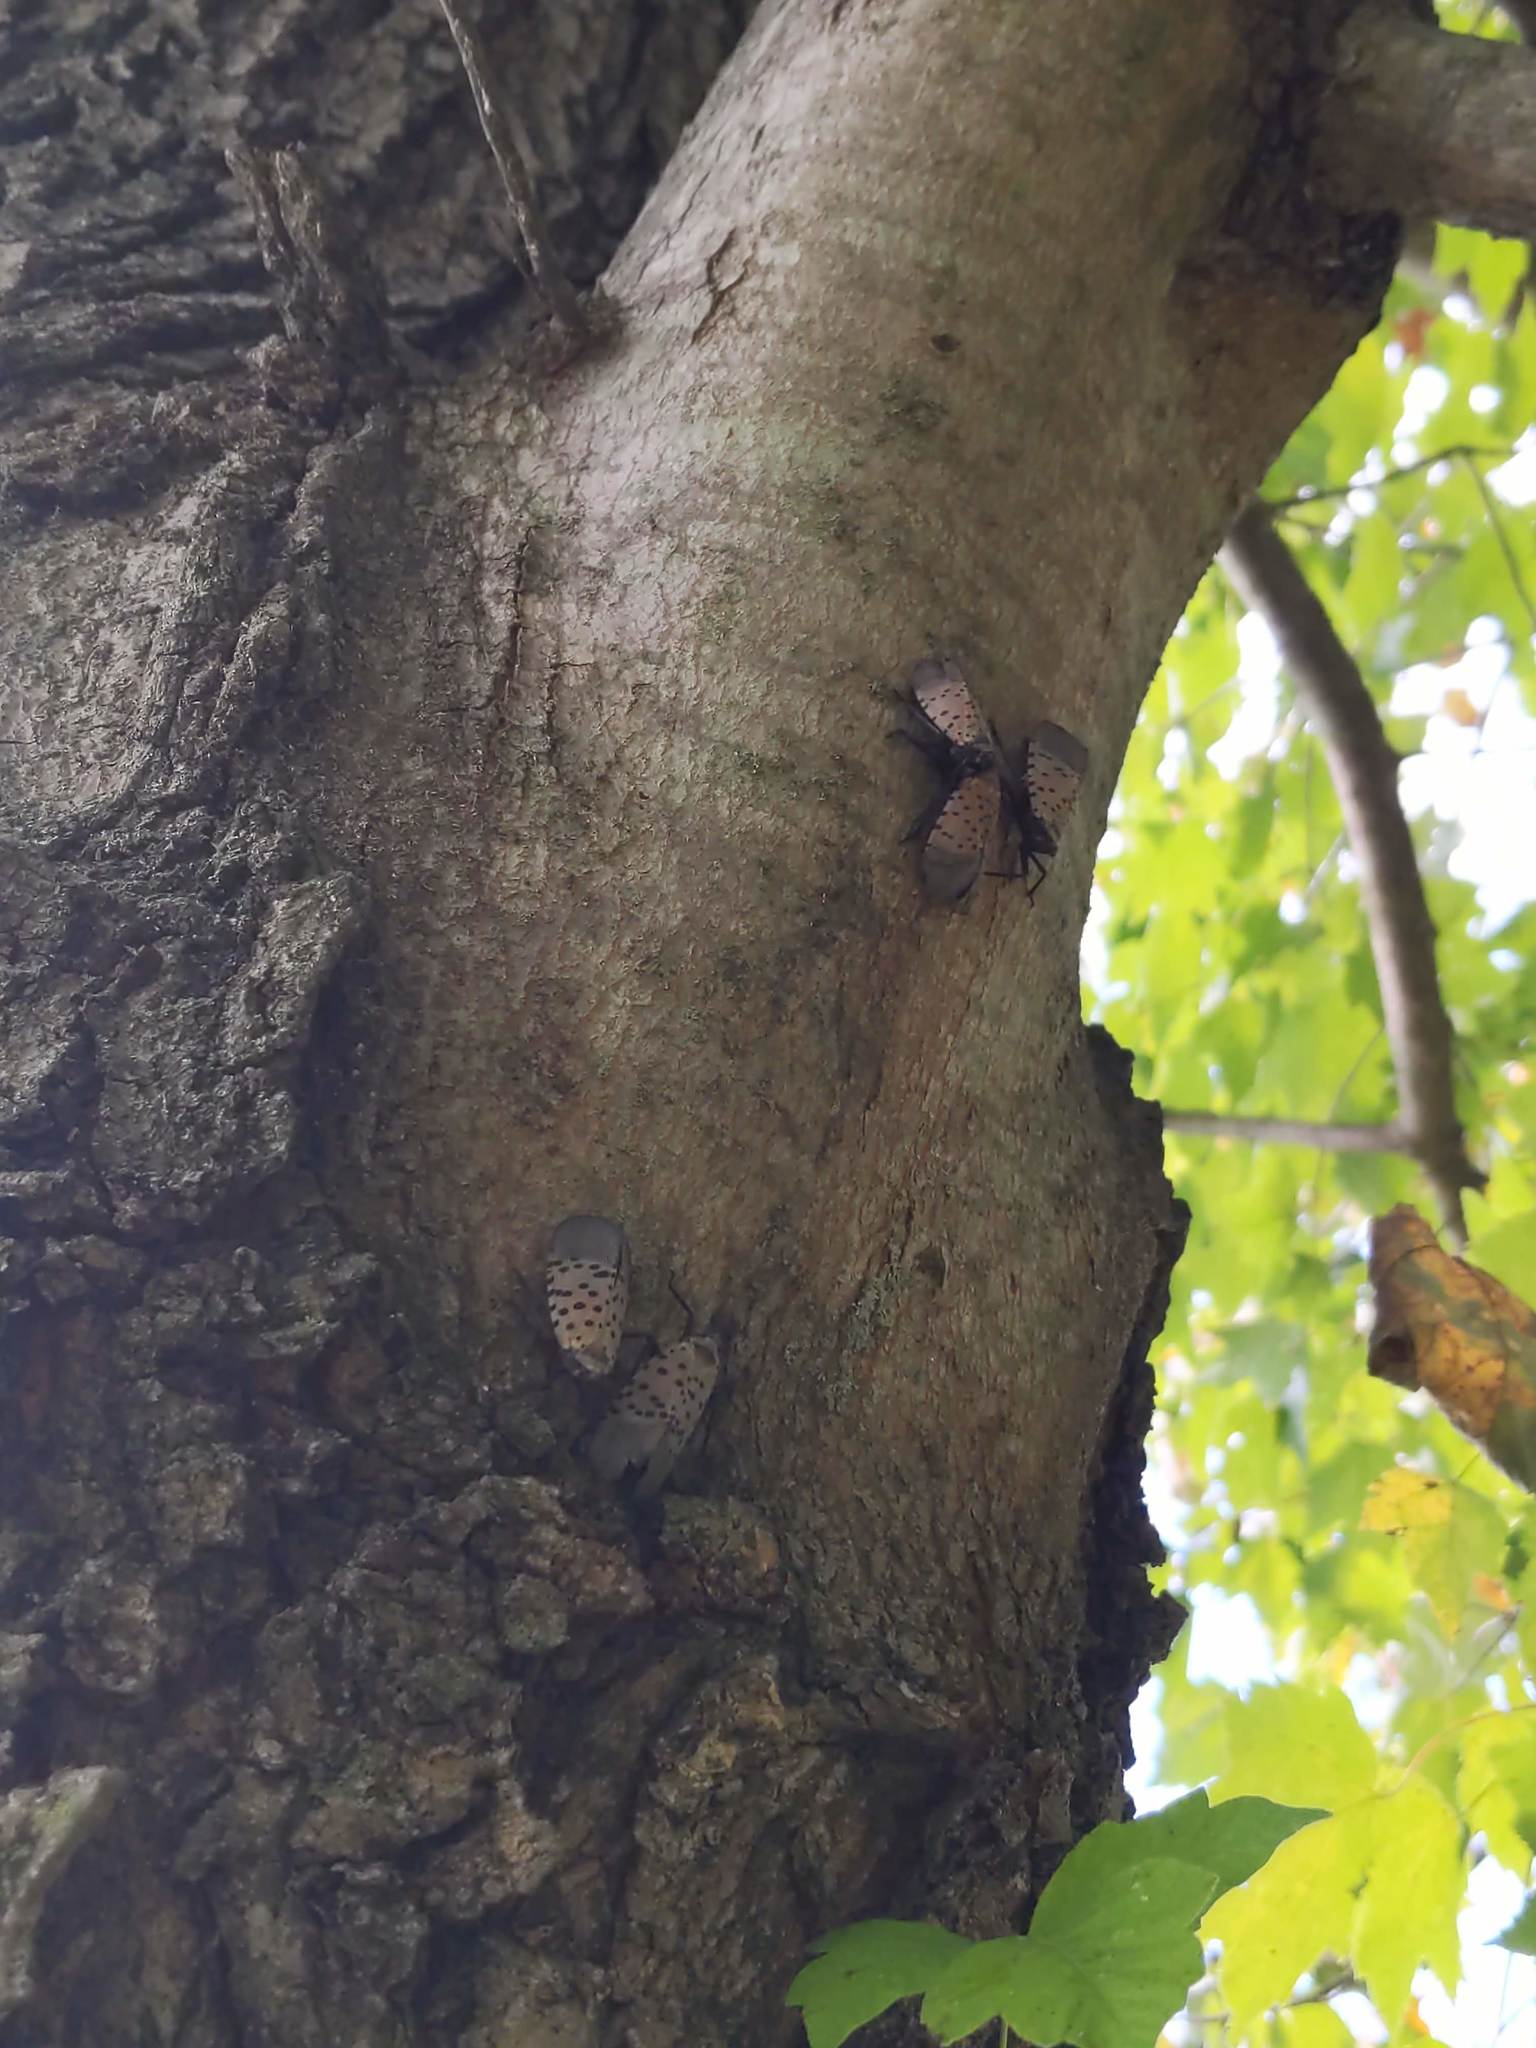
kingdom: Animalia
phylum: Arthropoda
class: Insecta
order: Hemiptera
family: Fulgoridae
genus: Lycorma
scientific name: Lycorma delicatula
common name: Spotted lanternfly
